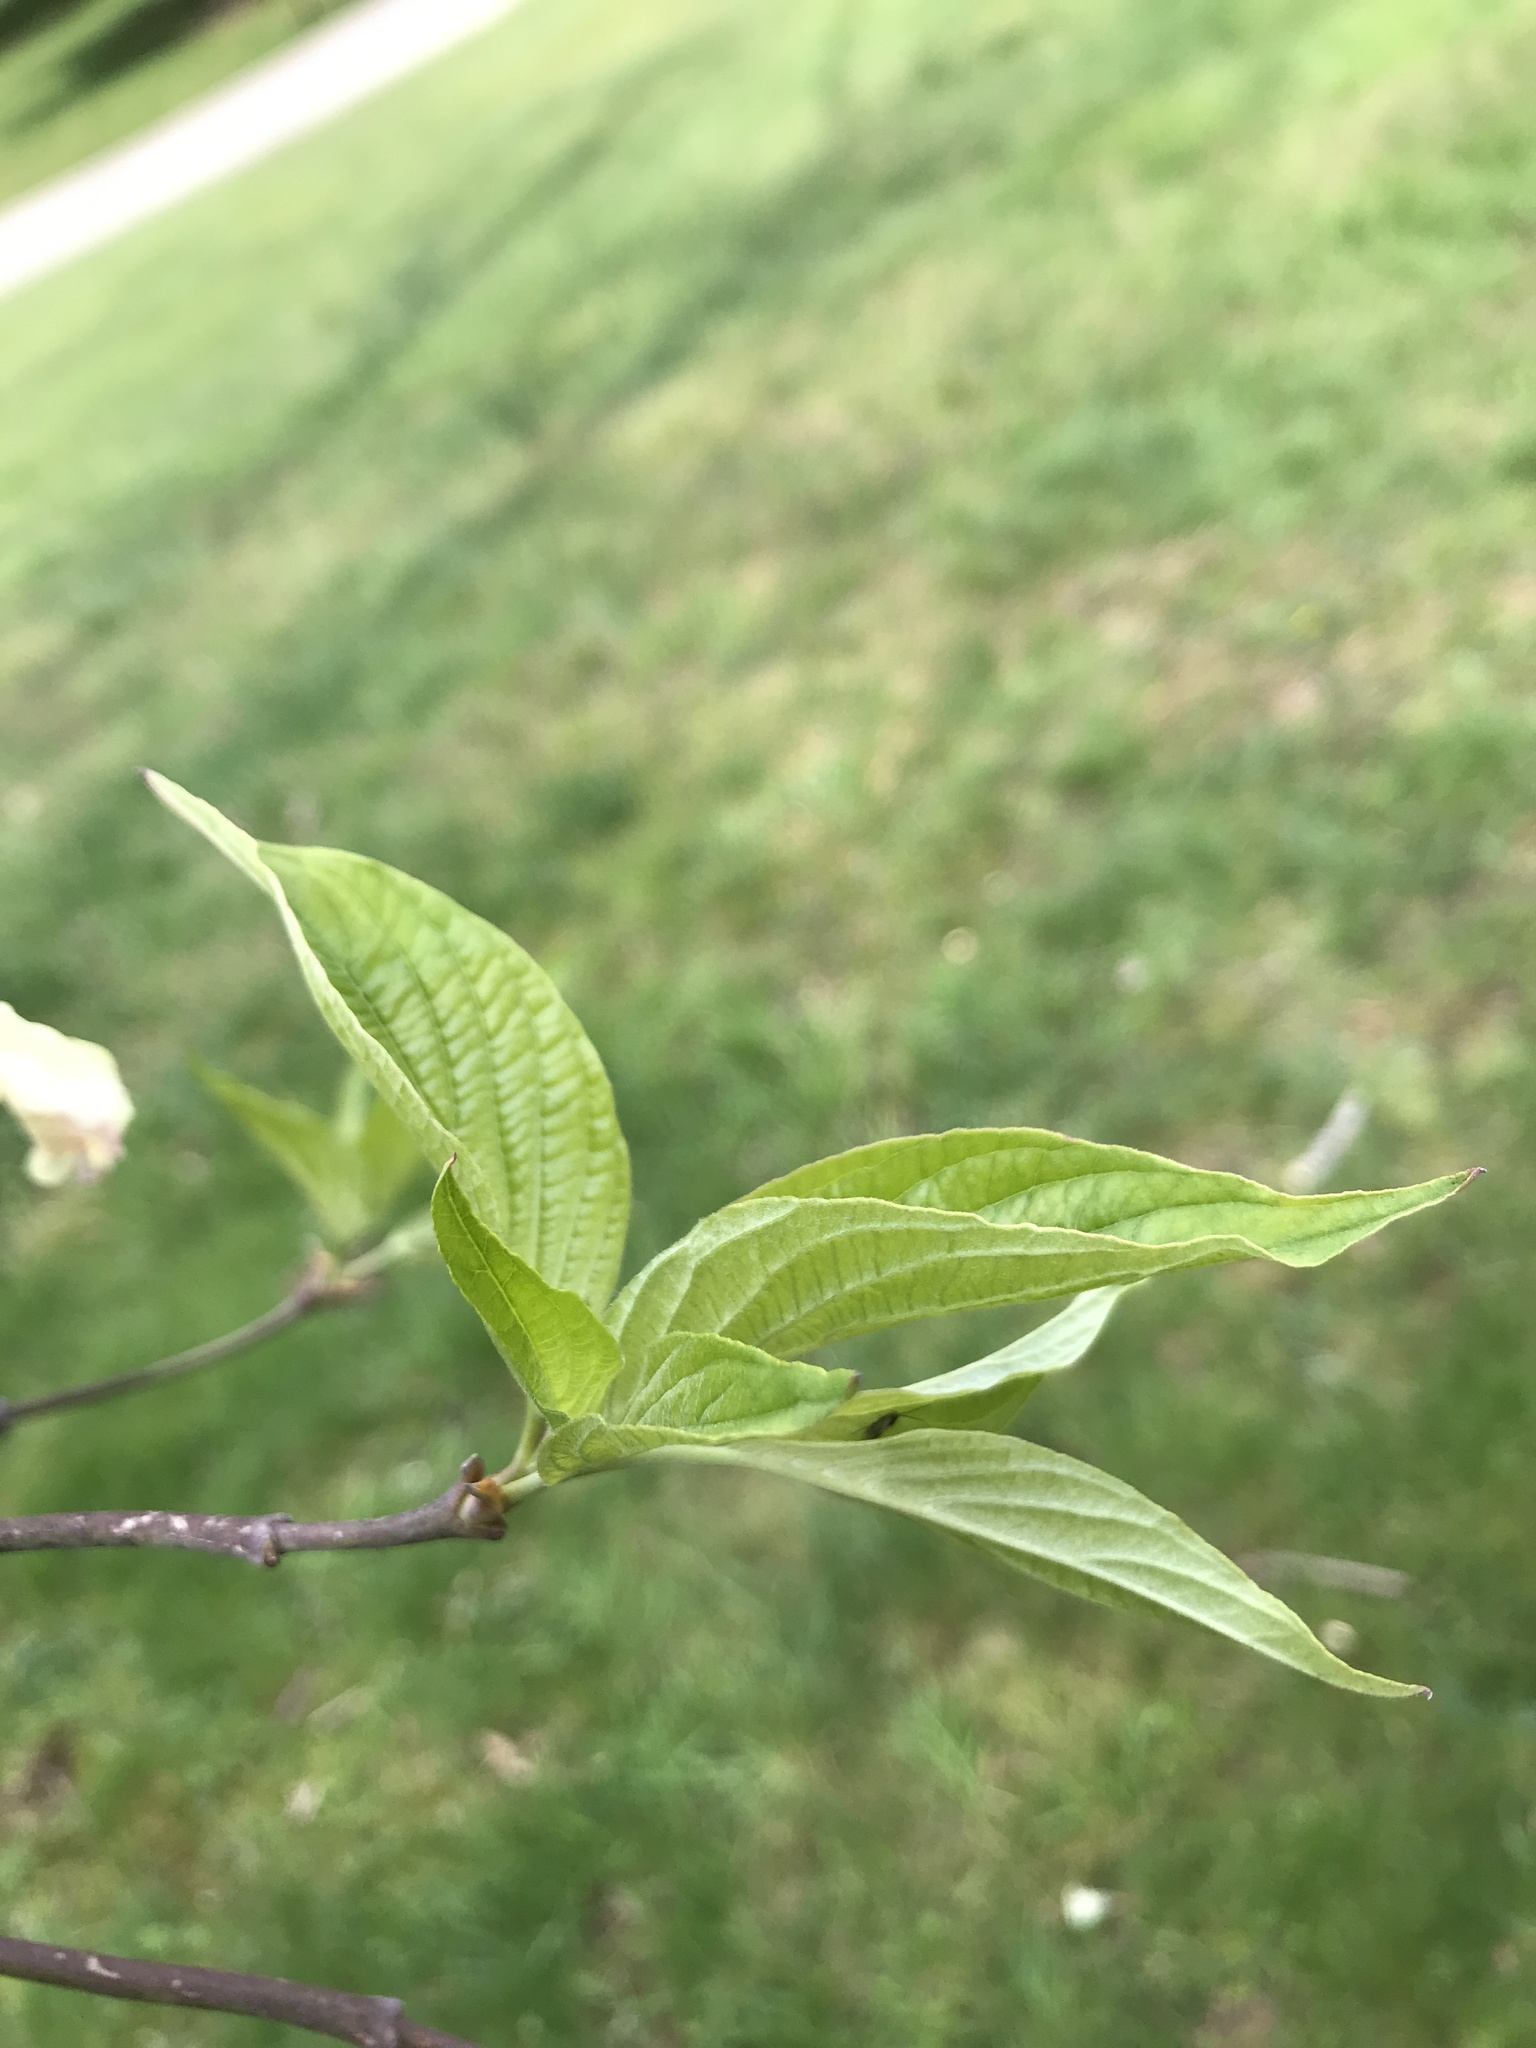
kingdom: Plantae
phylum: Tracheophyta
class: Magnoliopsida
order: Cornales
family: Cornaceae
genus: Cornus
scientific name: Cornus florida
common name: Flowering dogwood
